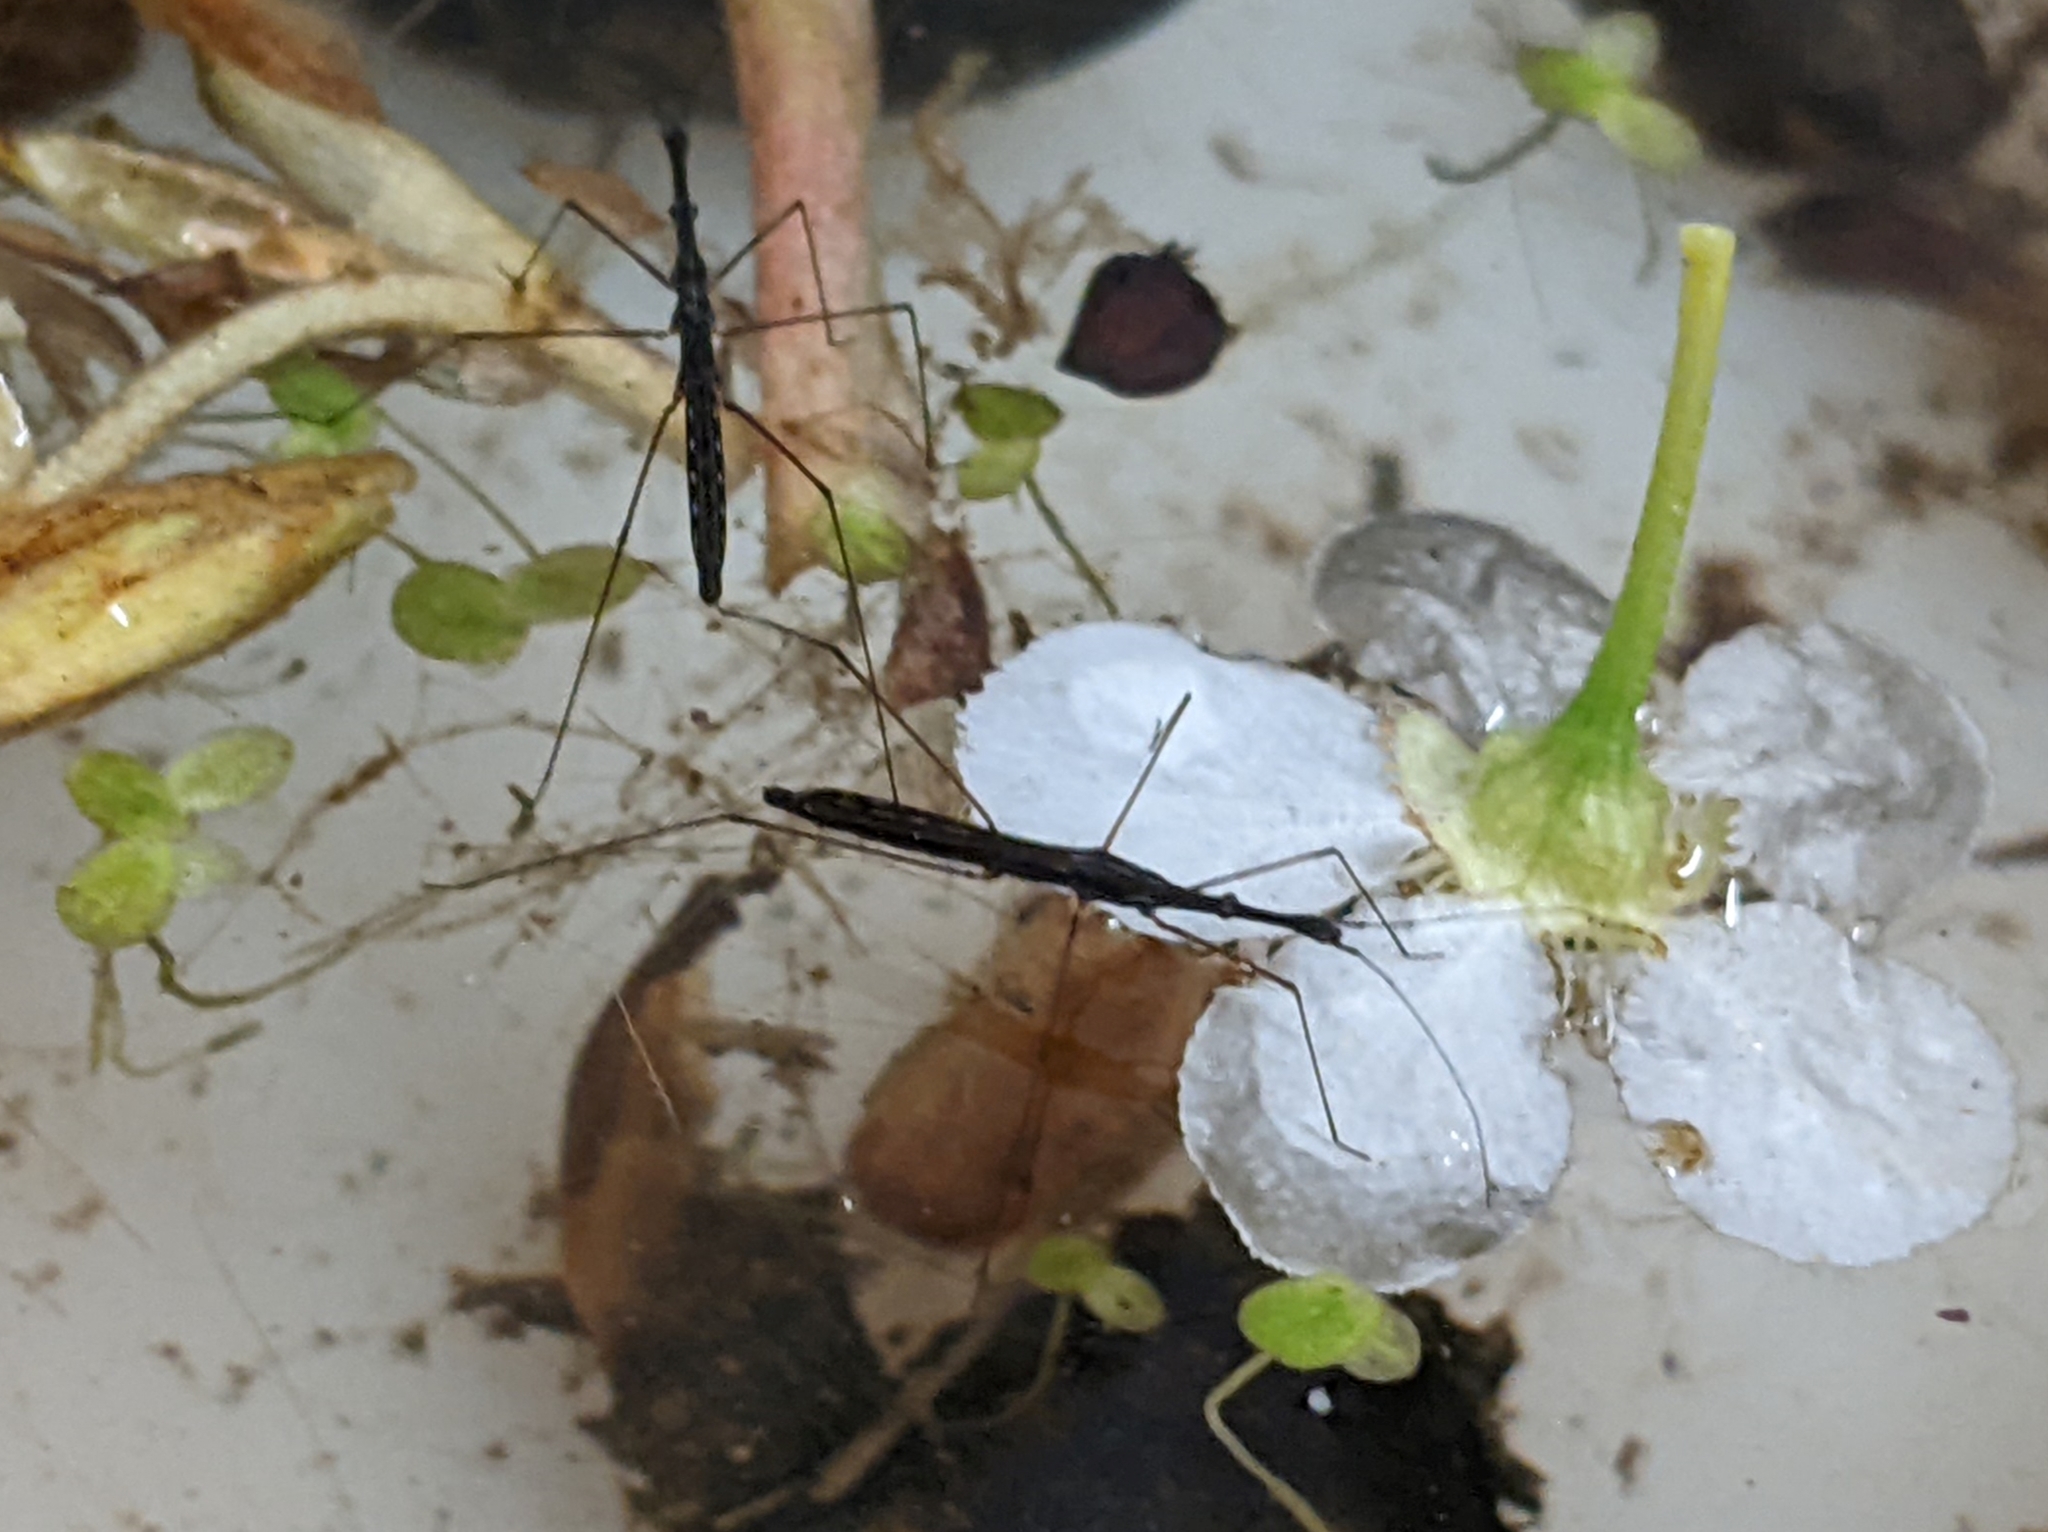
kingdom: Animalia
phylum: Arthropoda
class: Insecta
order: Hemiptera
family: Hydrometridae
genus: Hydrometra
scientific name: Hydrometra stagnorum
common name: Water measurer
